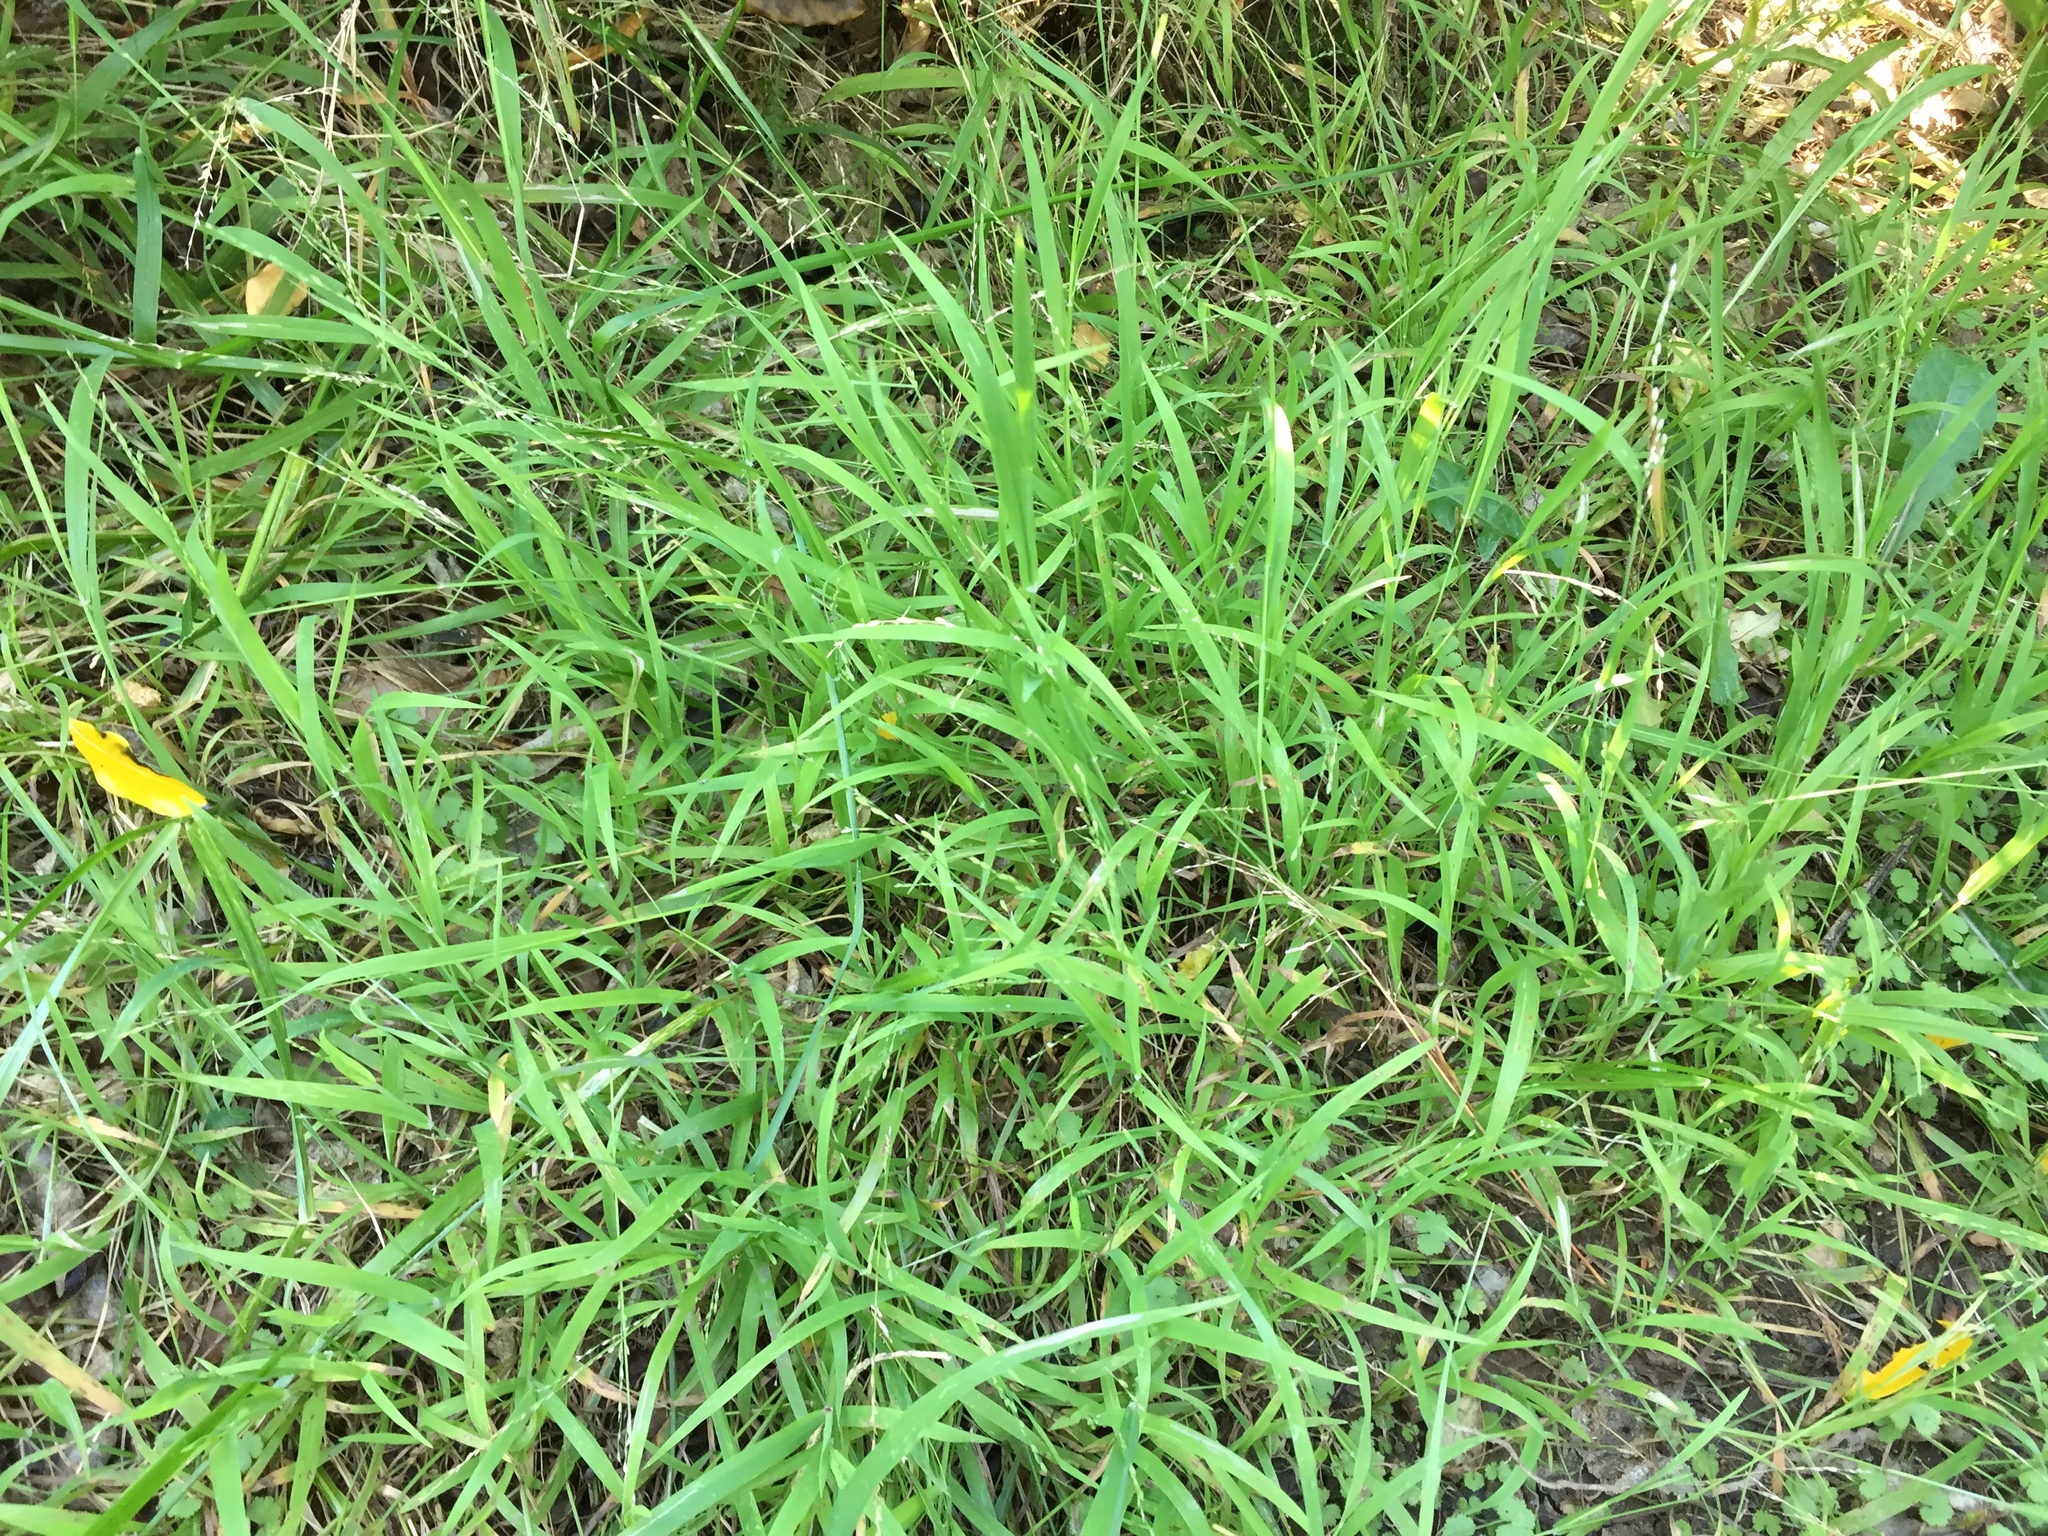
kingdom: Plantae
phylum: Tracheophyta
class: Liliopsida
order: Poales
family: Poaceae
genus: Ehrharta
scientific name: Ehrharta erecta
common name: Panic veldtgrass
